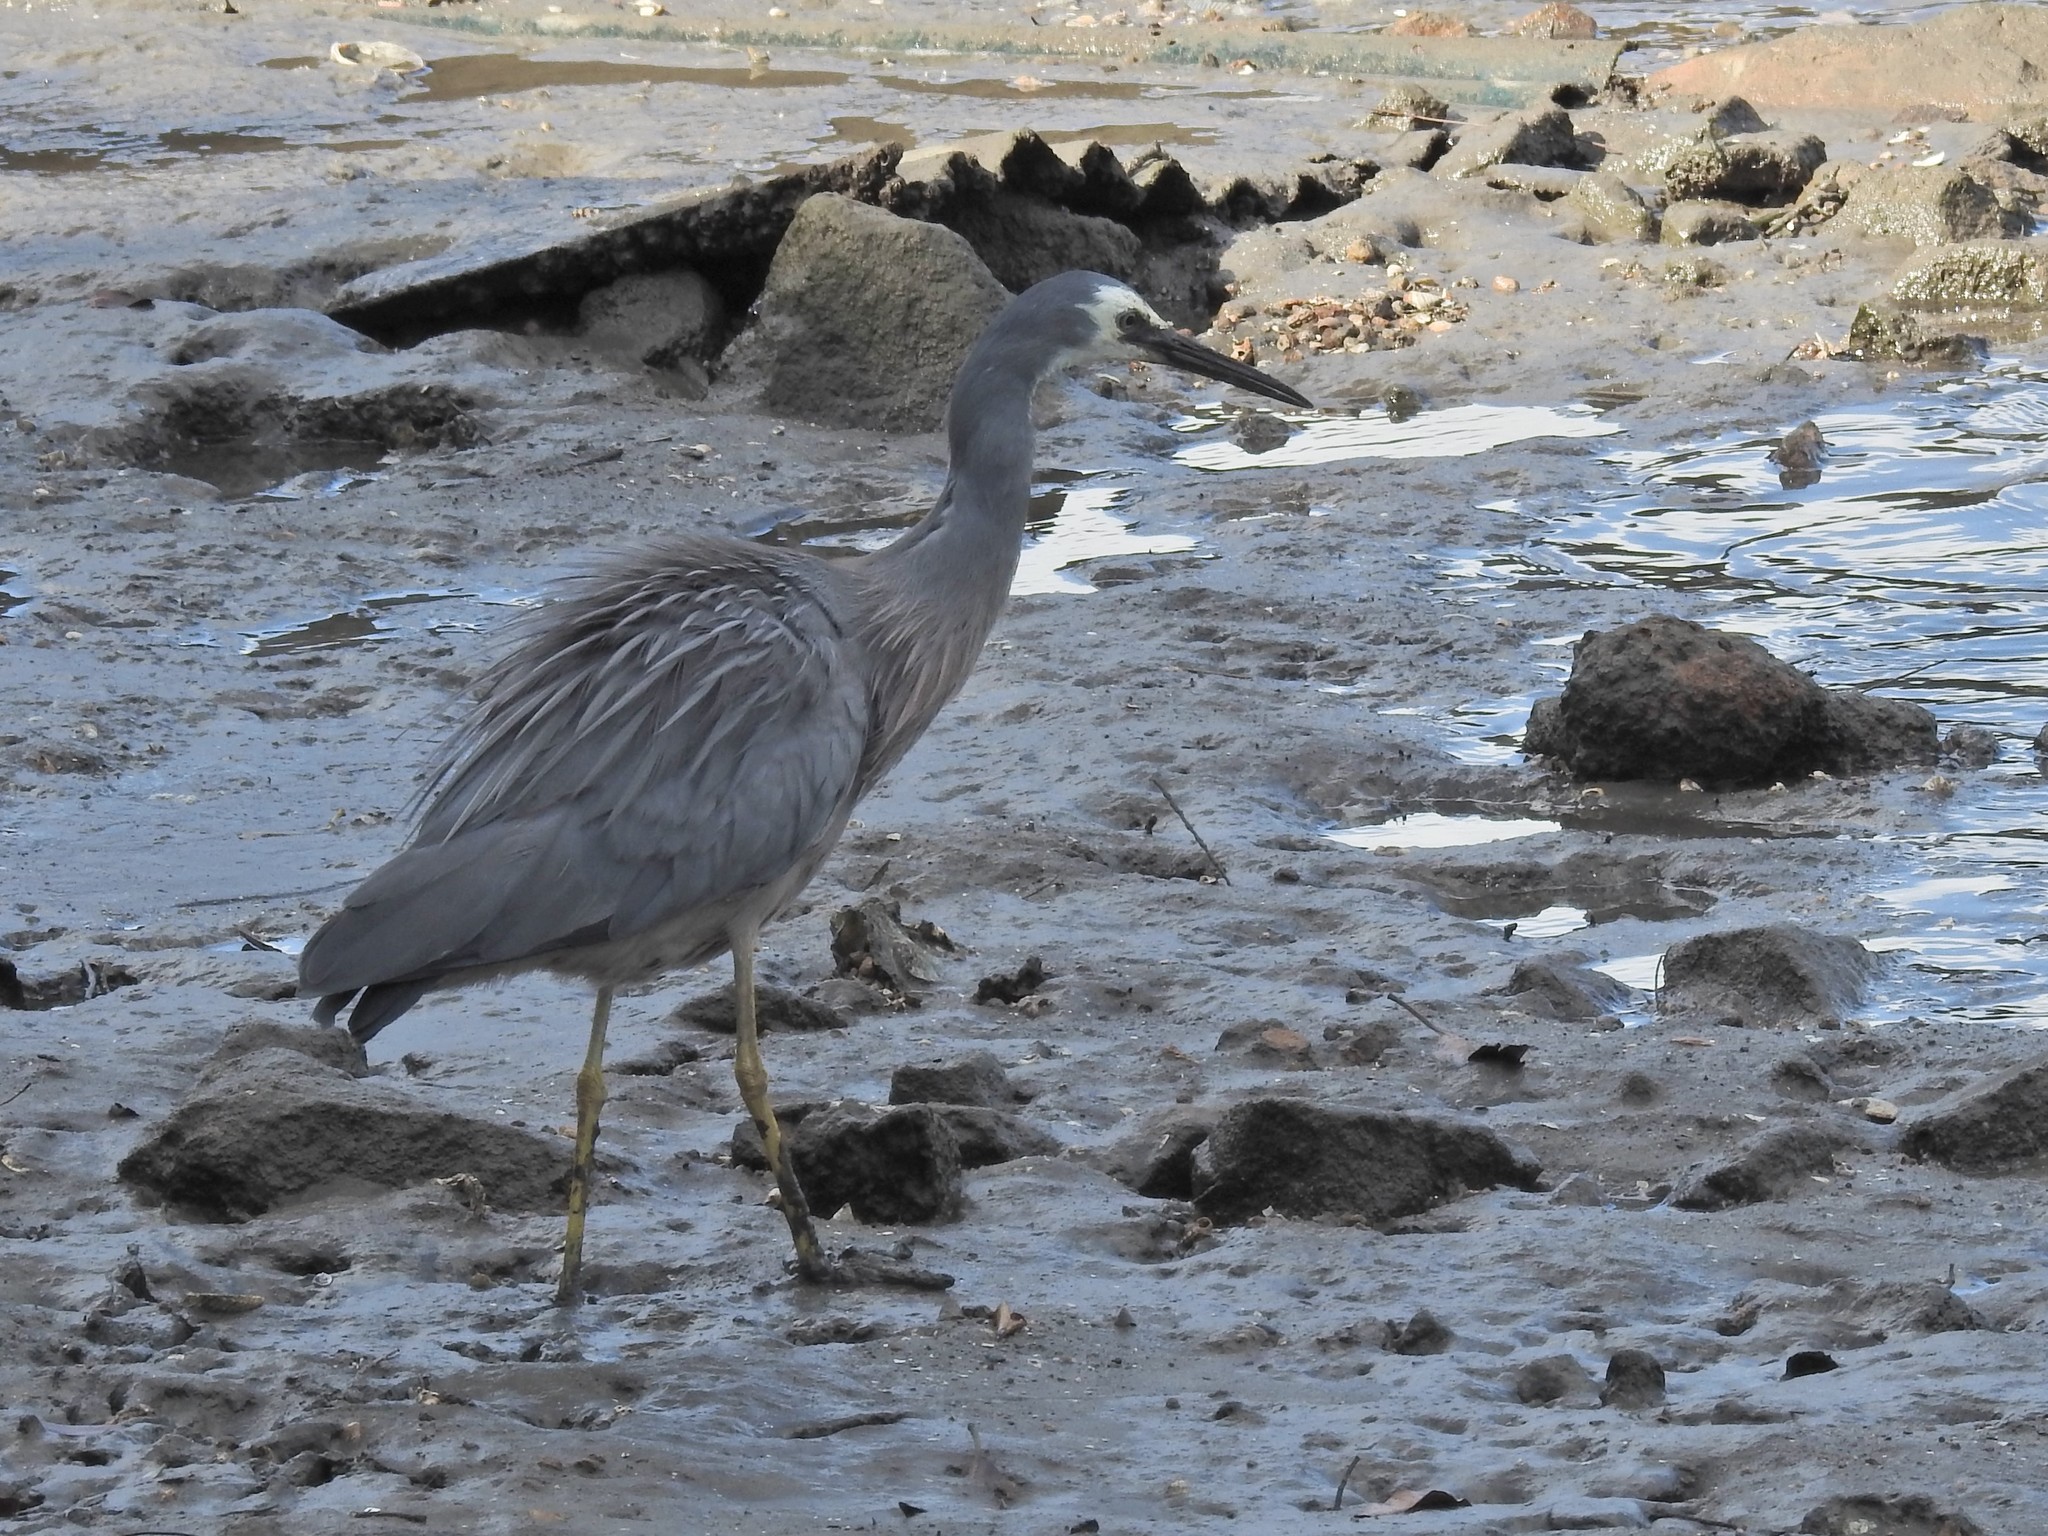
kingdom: Animalia
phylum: Chordata
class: Aves
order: Pelecaniformes
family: Ardeidae
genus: Egretta
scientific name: Egretta novaehollandiae
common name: White-faced heron
